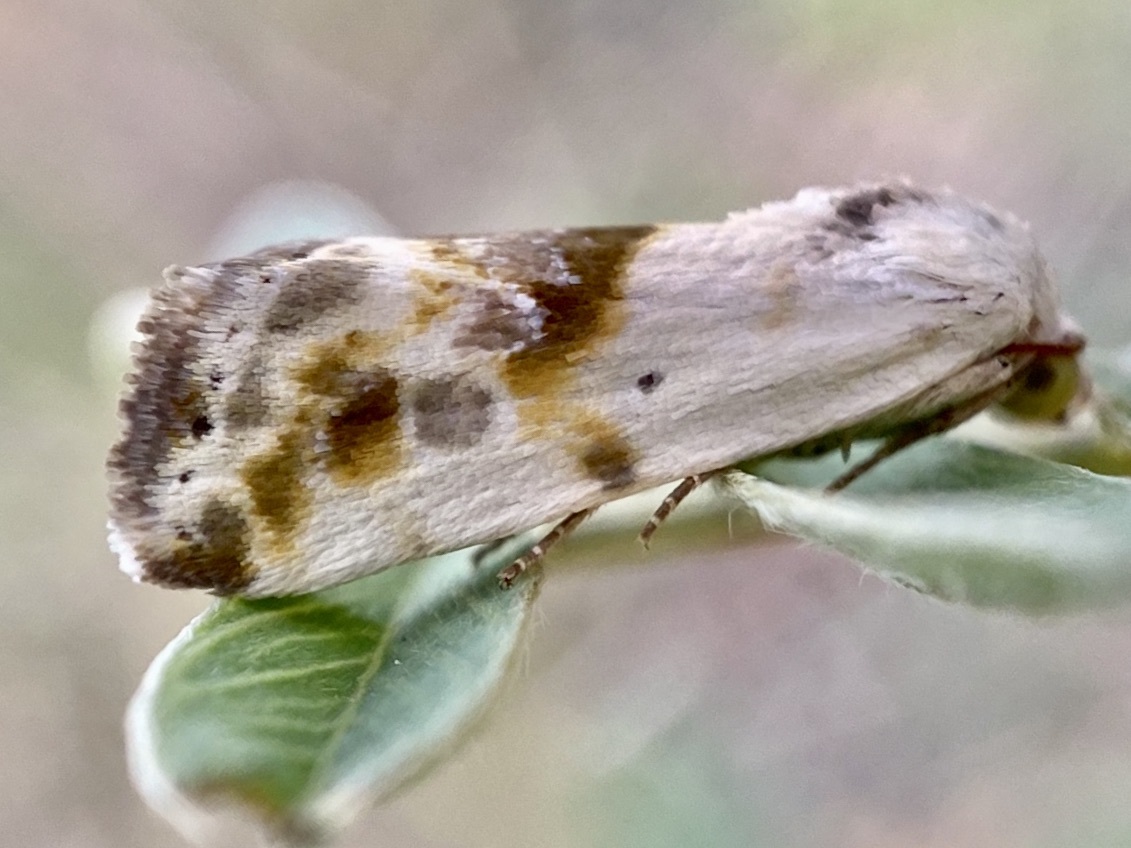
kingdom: Animalia
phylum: Arthropoda
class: Insecta
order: Lepidoptera
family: Noctuidae
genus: Acontia
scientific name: Acontia candefacta
